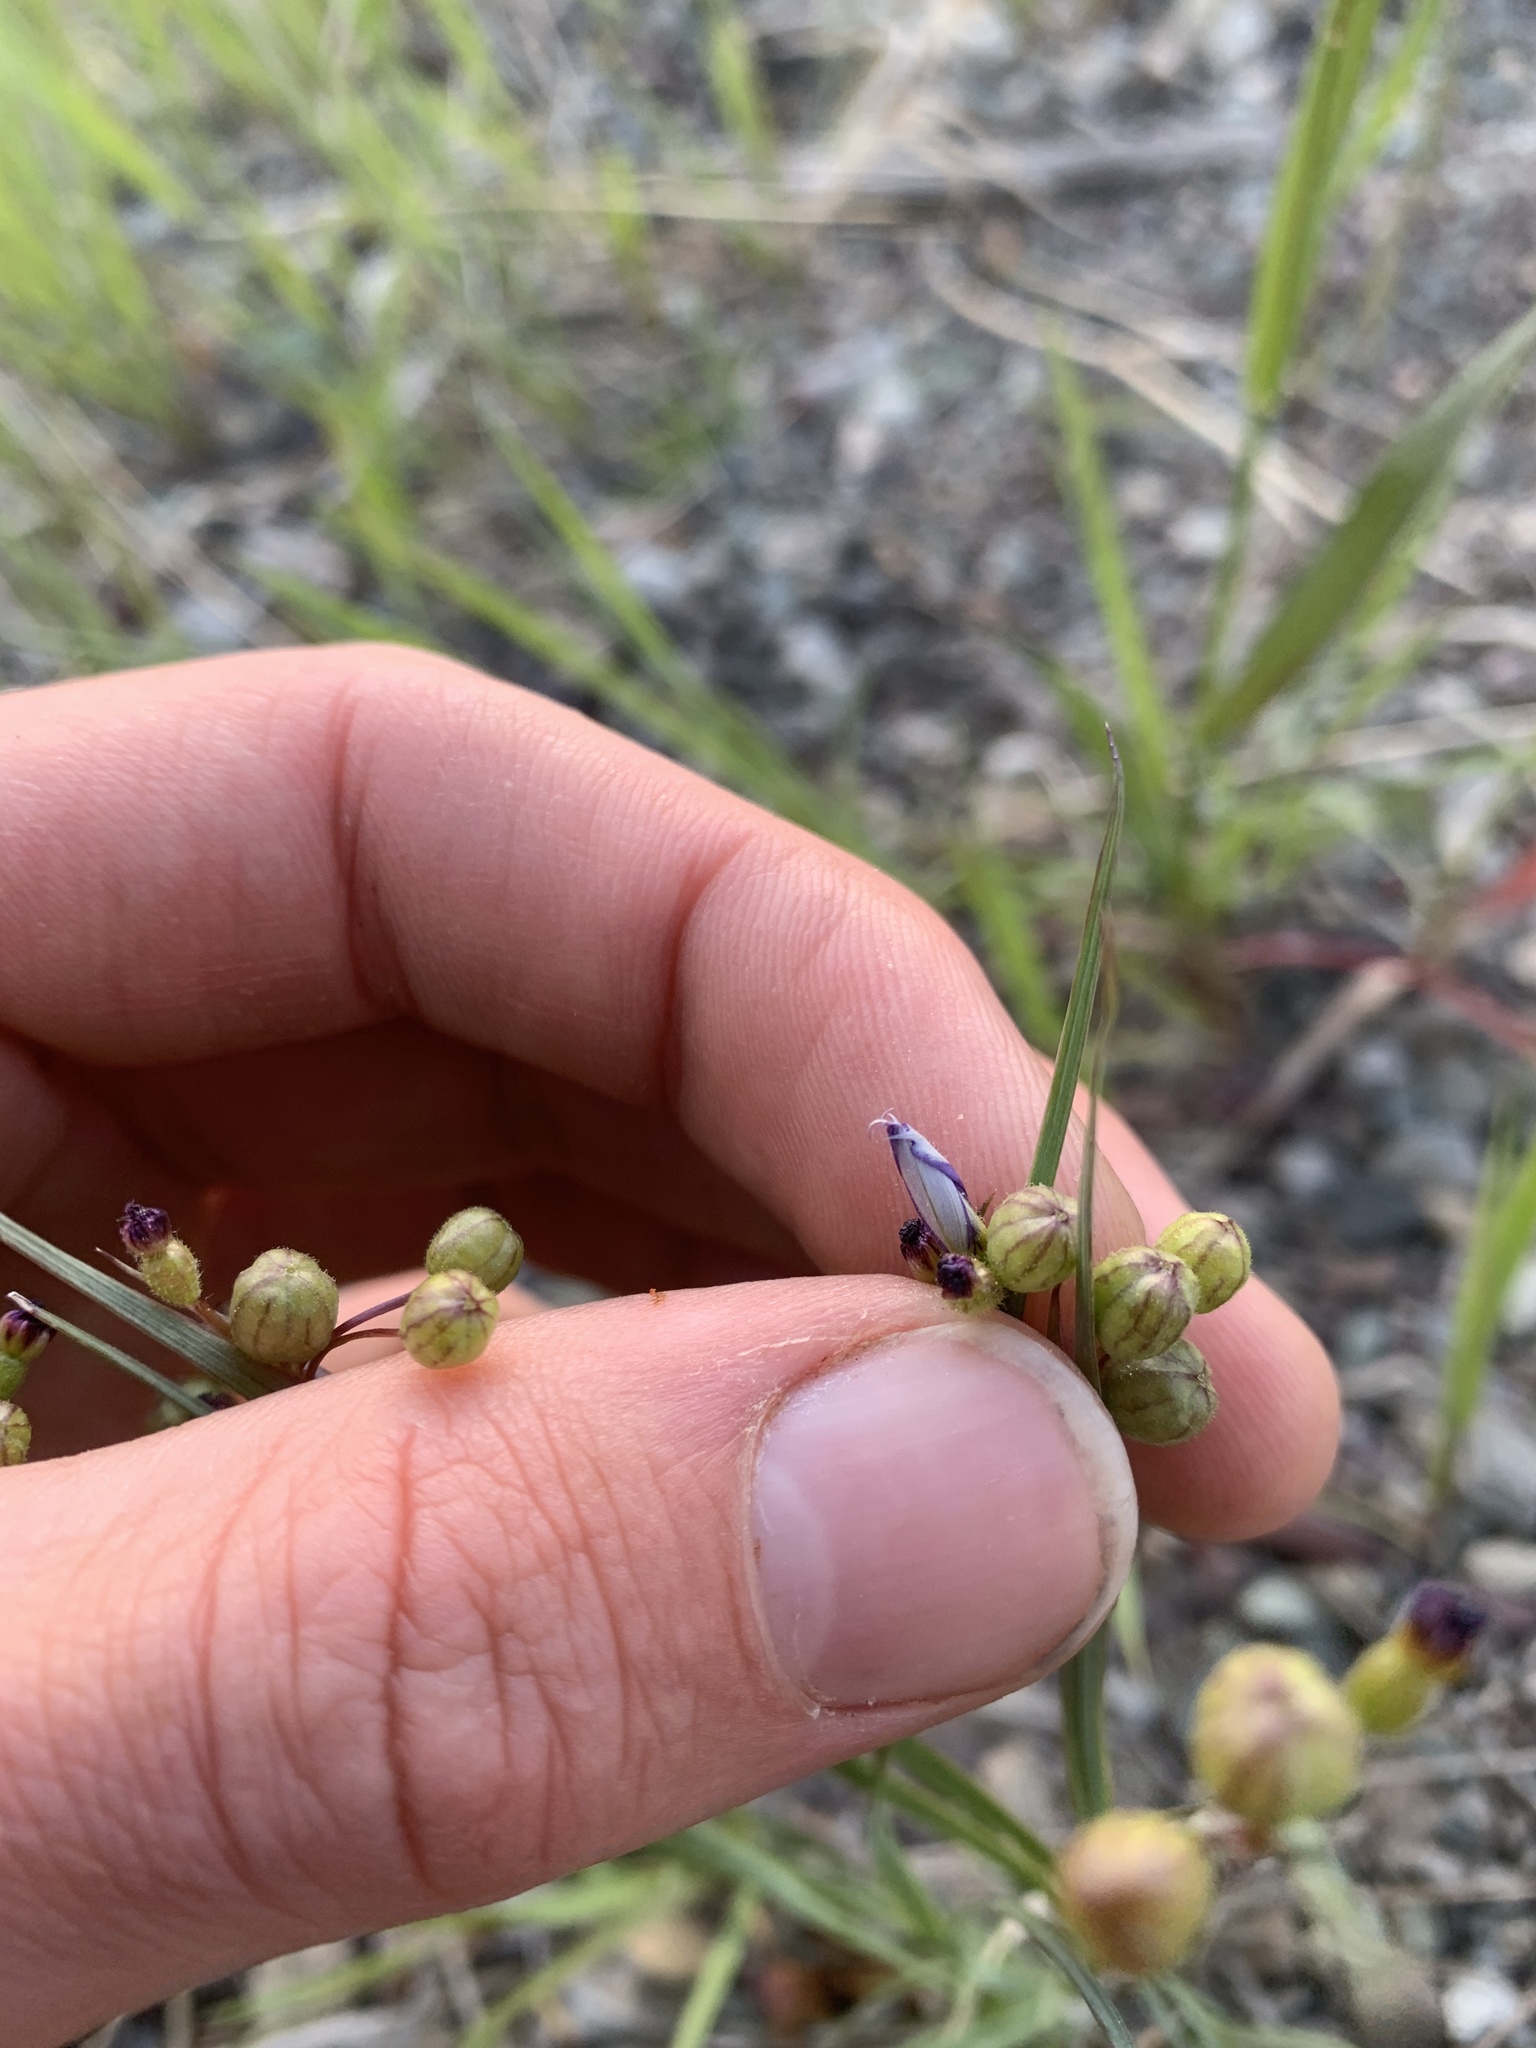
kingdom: Plantae
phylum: Tracheophyta
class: Liliopsida
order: Asparagales
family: Iridaceae
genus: Sisyrinchium
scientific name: Sisyrinchium montanum
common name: American blue-eyed-grass
